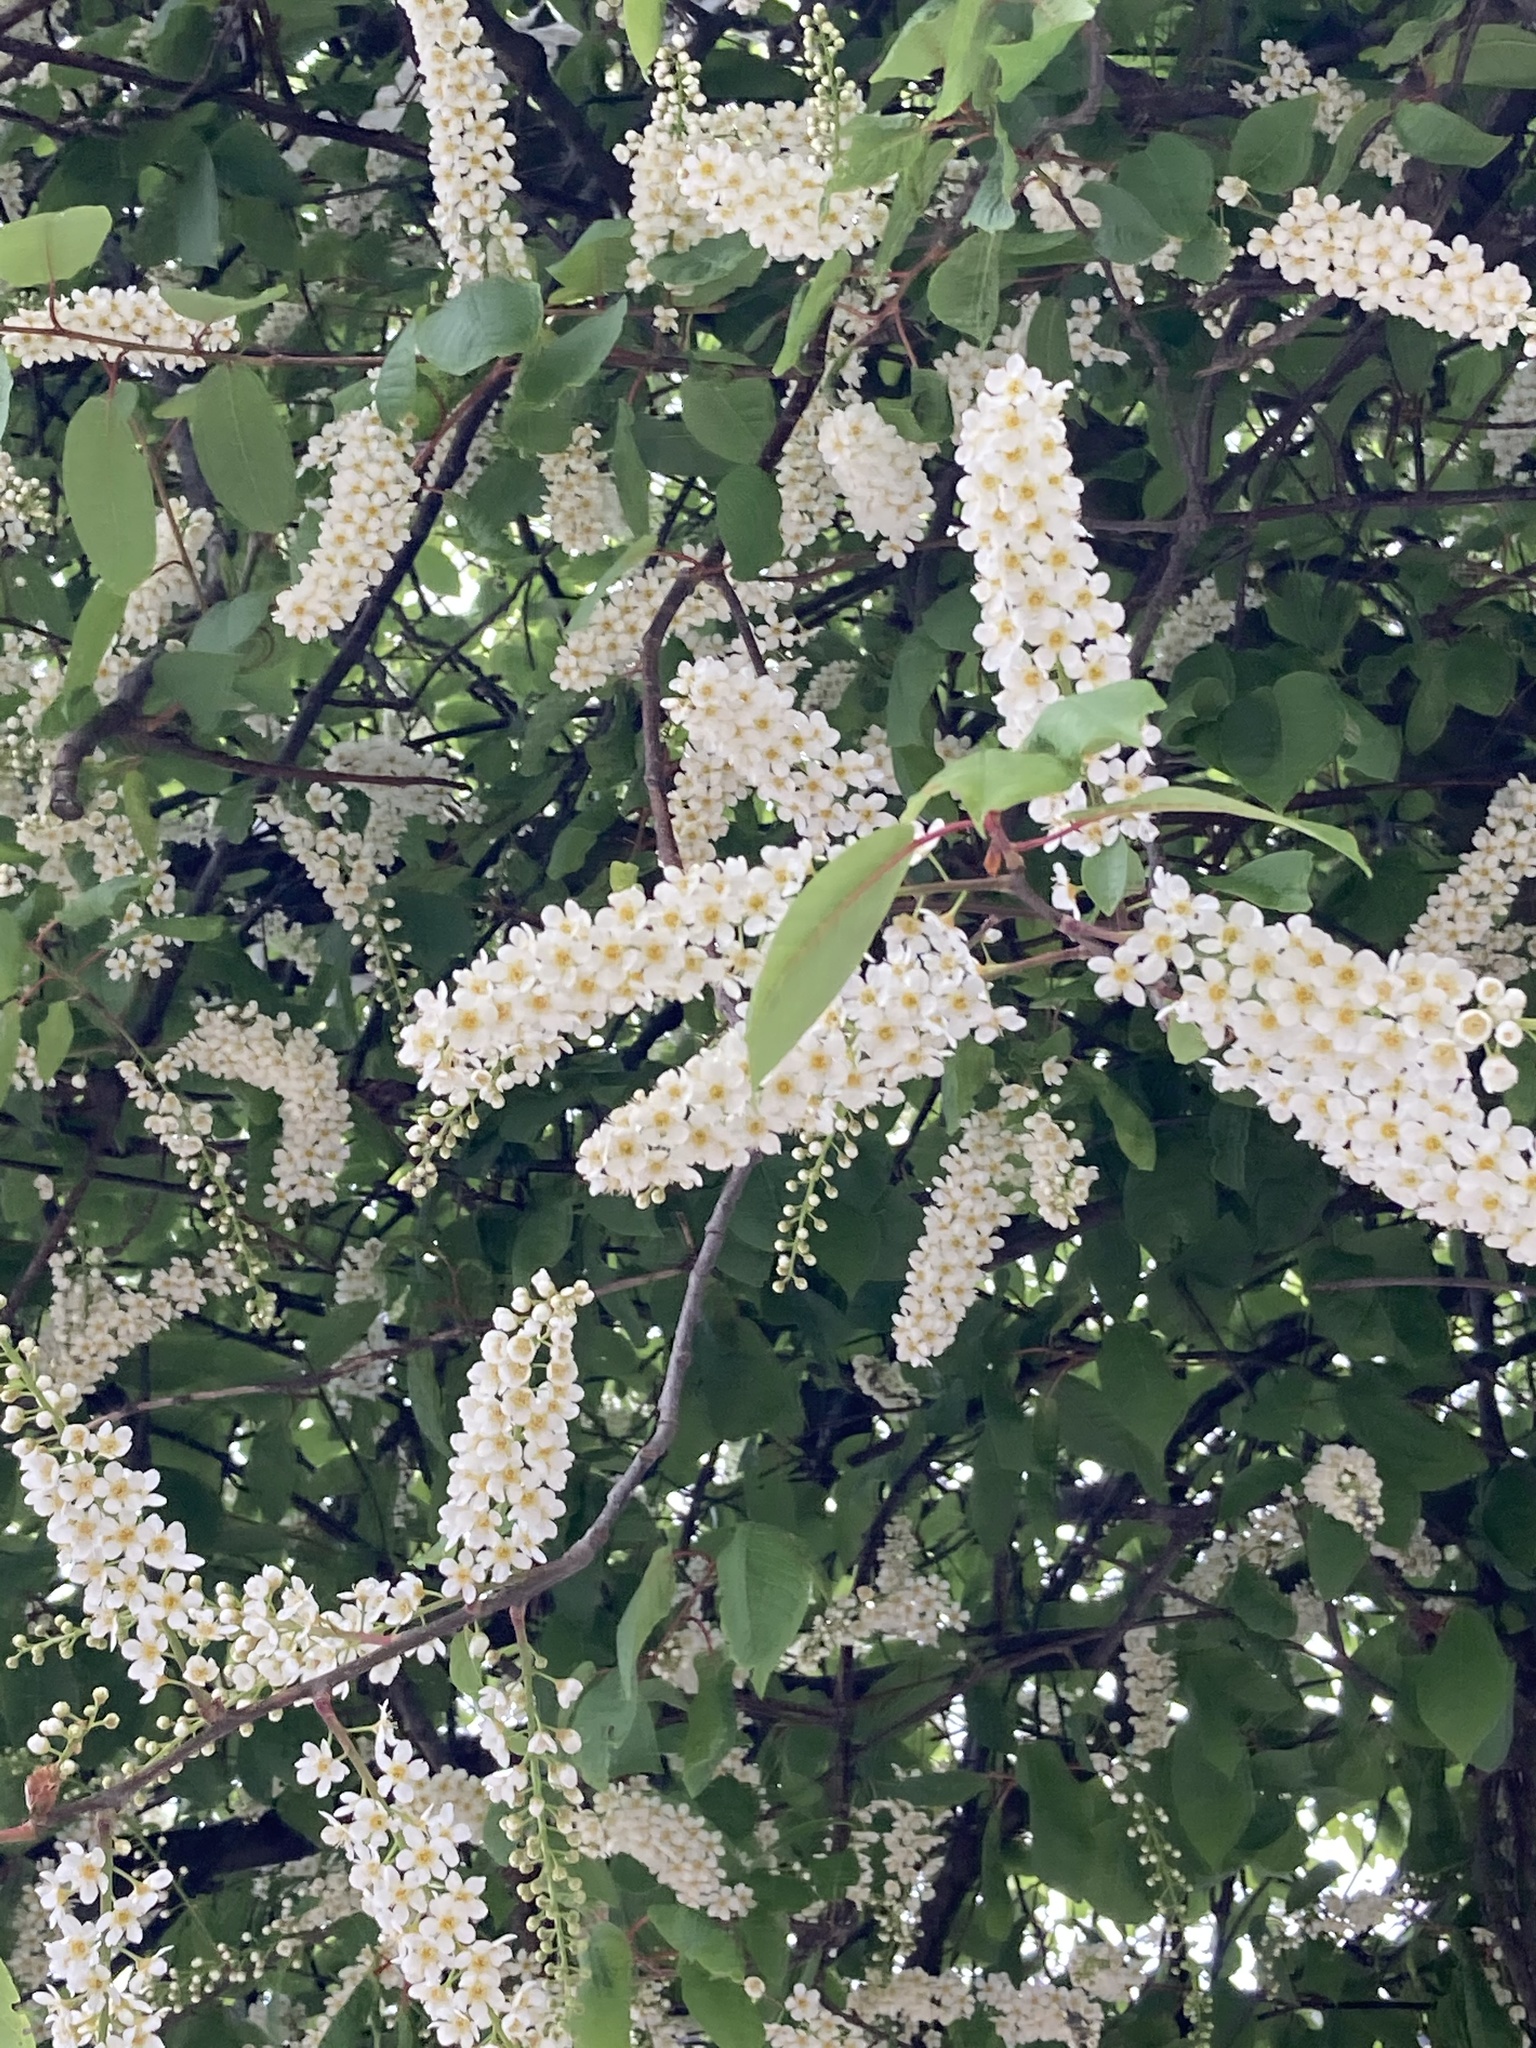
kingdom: Plantae
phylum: Tracheophyta
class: Magnoliopsida
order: Rosales
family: Rosaceae
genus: Prunus
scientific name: Prunus padus
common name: Bird cherry
